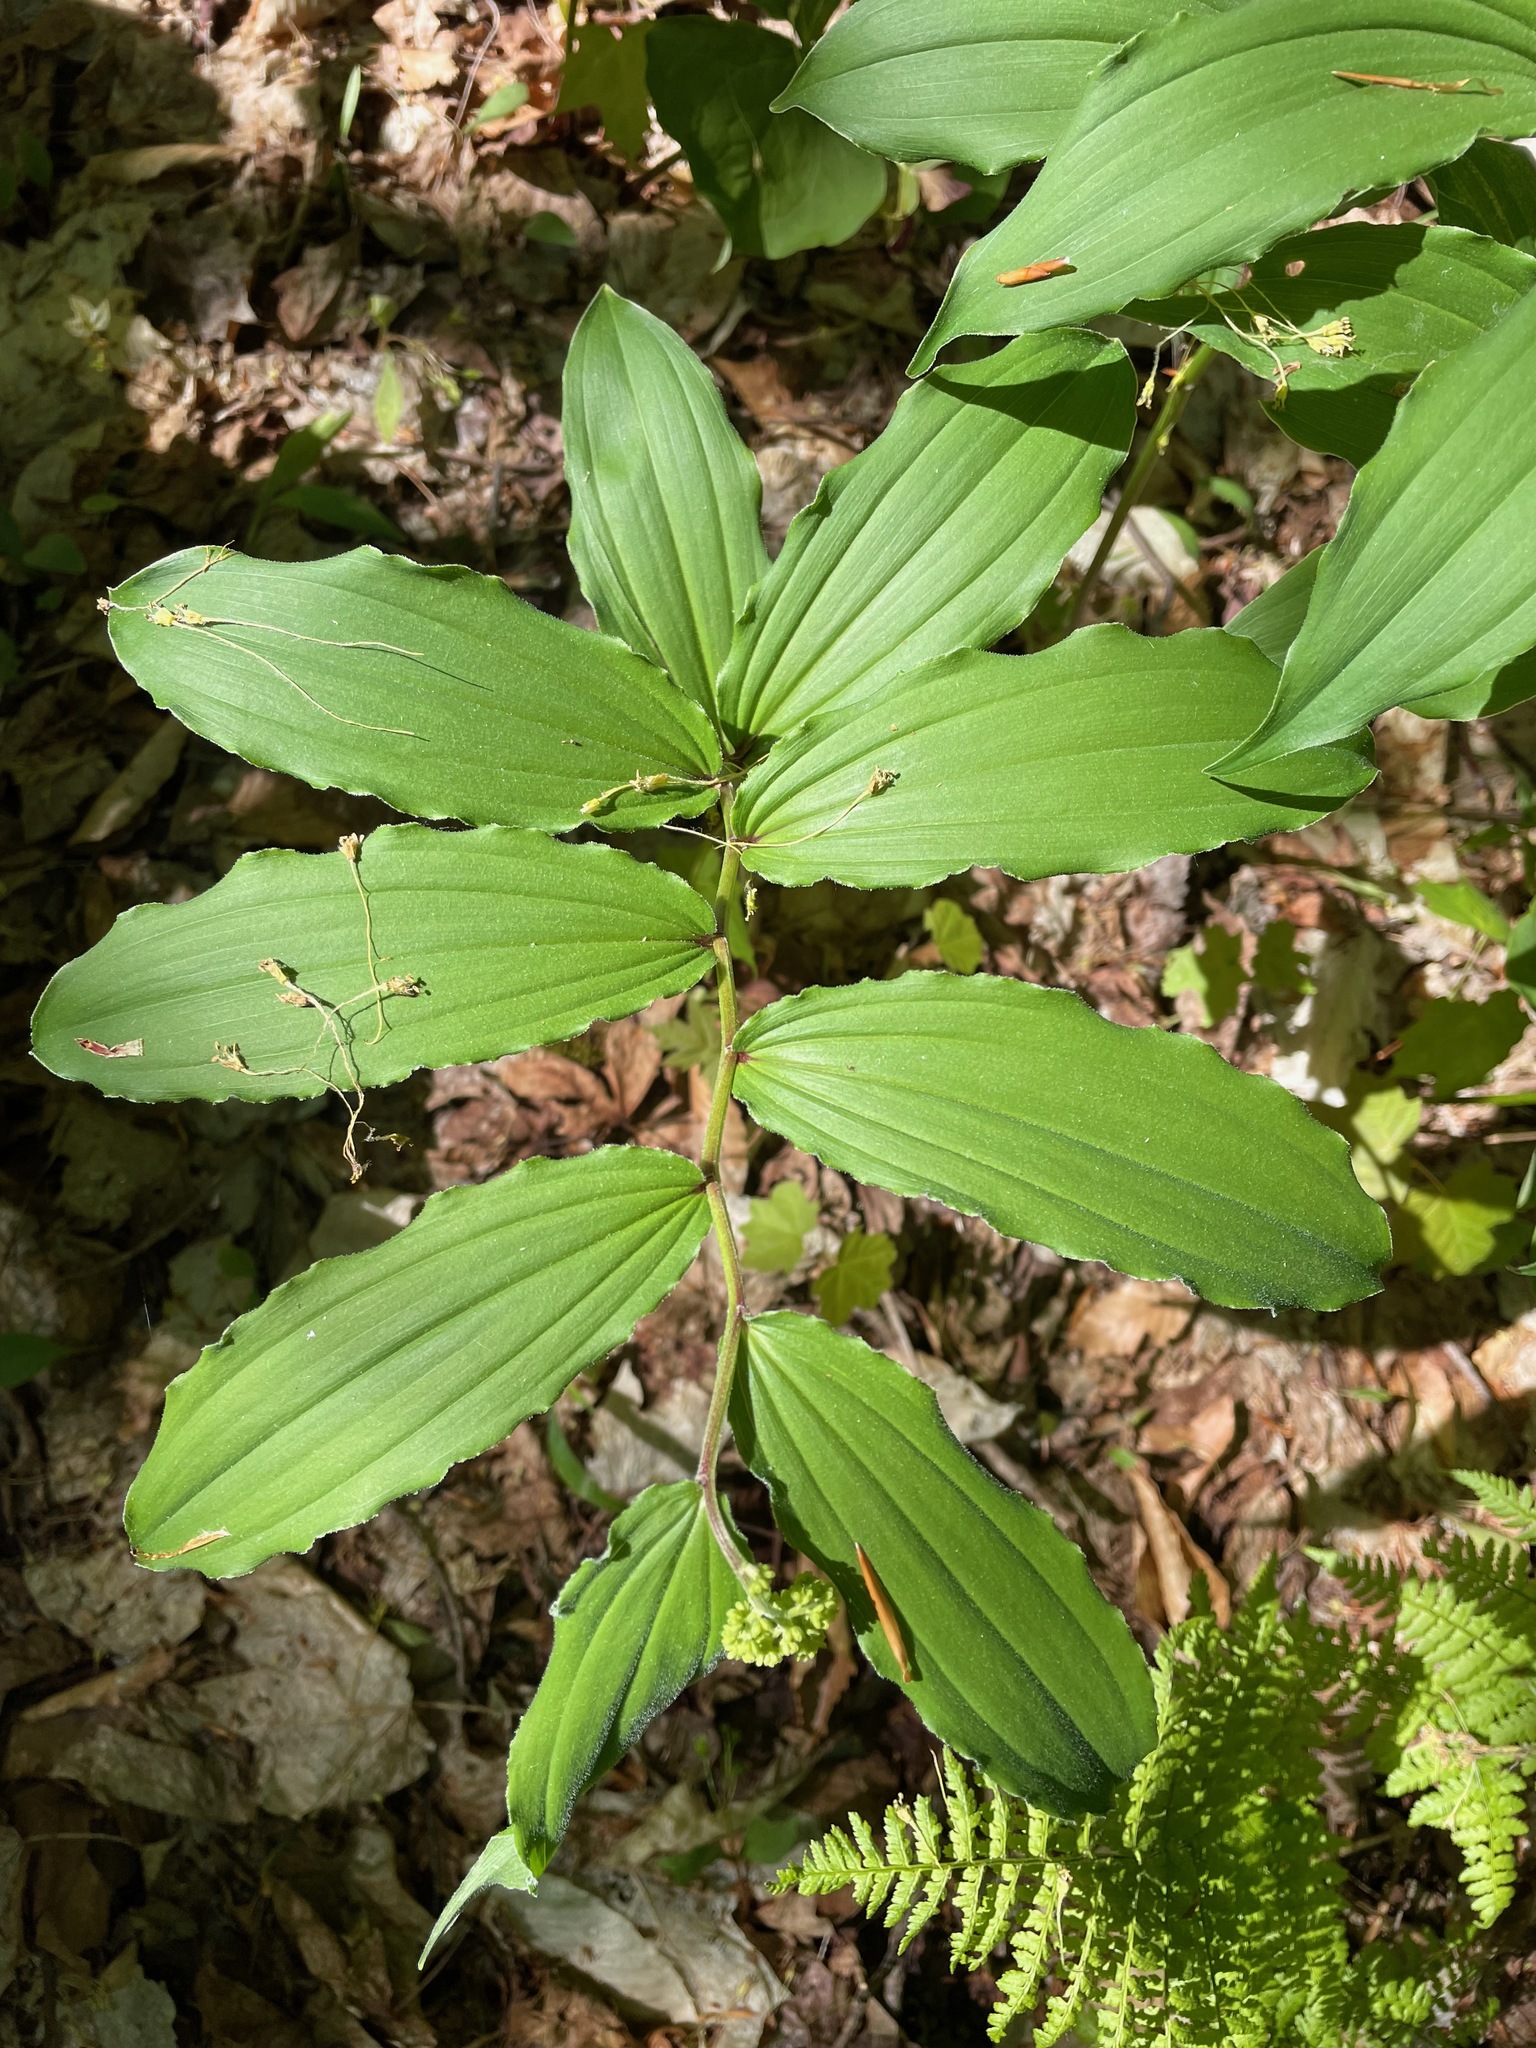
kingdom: Plantae
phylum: Tracheophyta
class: Liliopsida
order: Asparagales
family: Asparagaceae
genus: Maianthemum
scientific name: Maianthemum racemosum
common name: False spikenard
